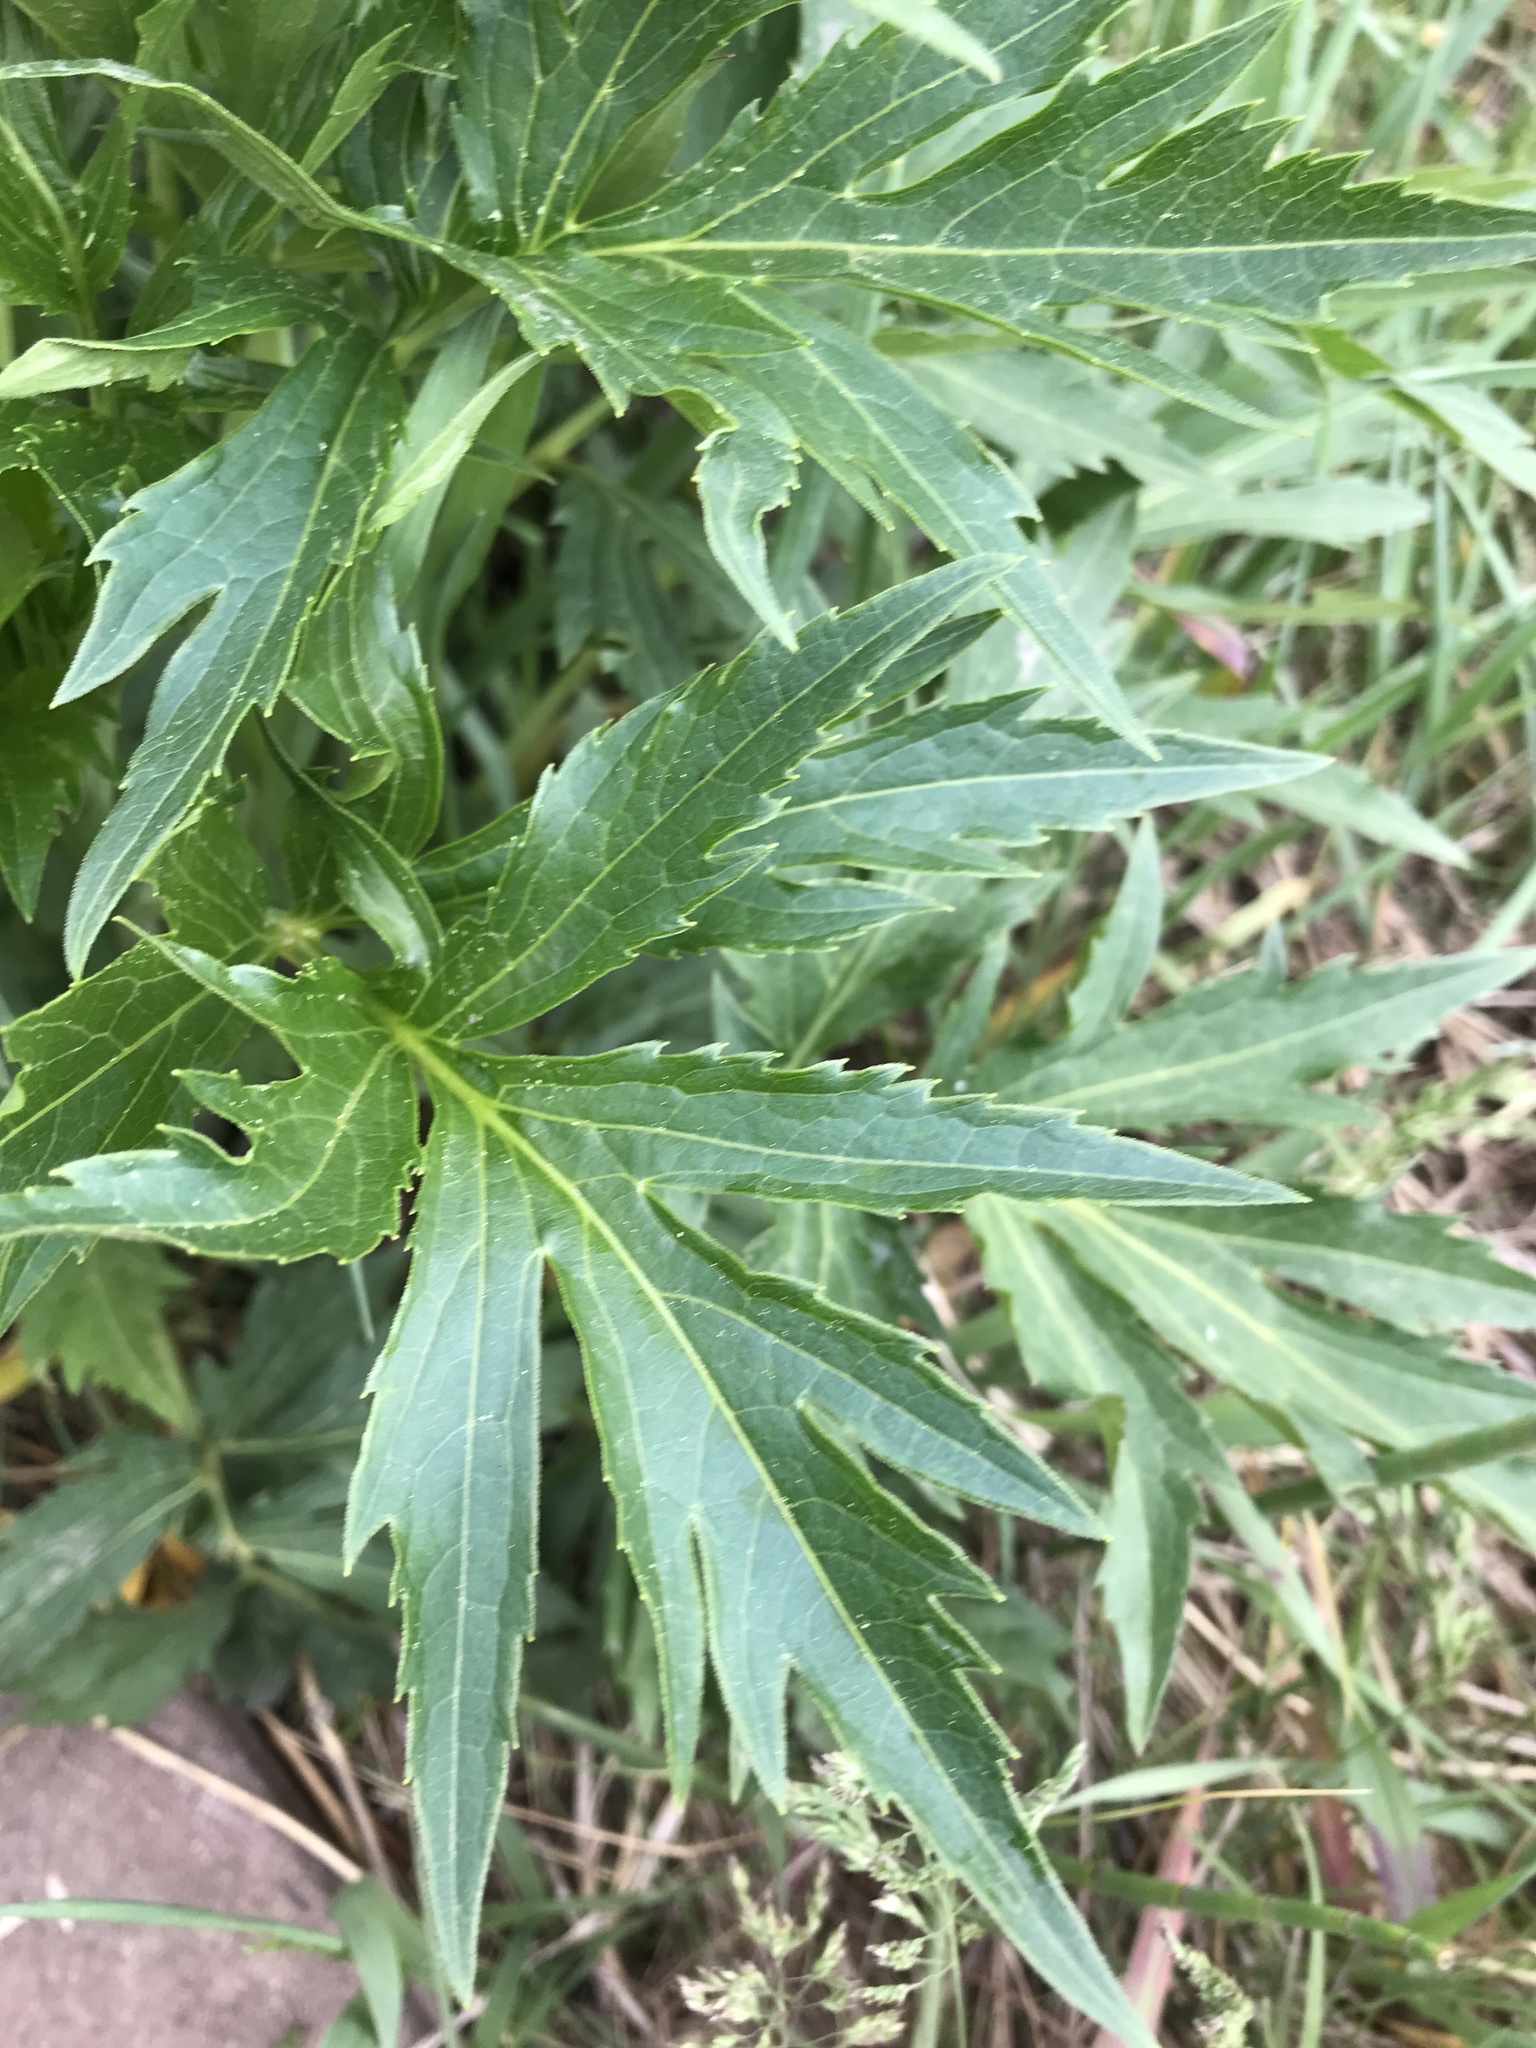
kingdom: Plantae
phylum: Tracheophyta
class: Magnoliopsida
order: Apiales
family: Apiaceae
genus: Heracleum
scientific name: Heracleum maximum
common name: American cow parsnip
